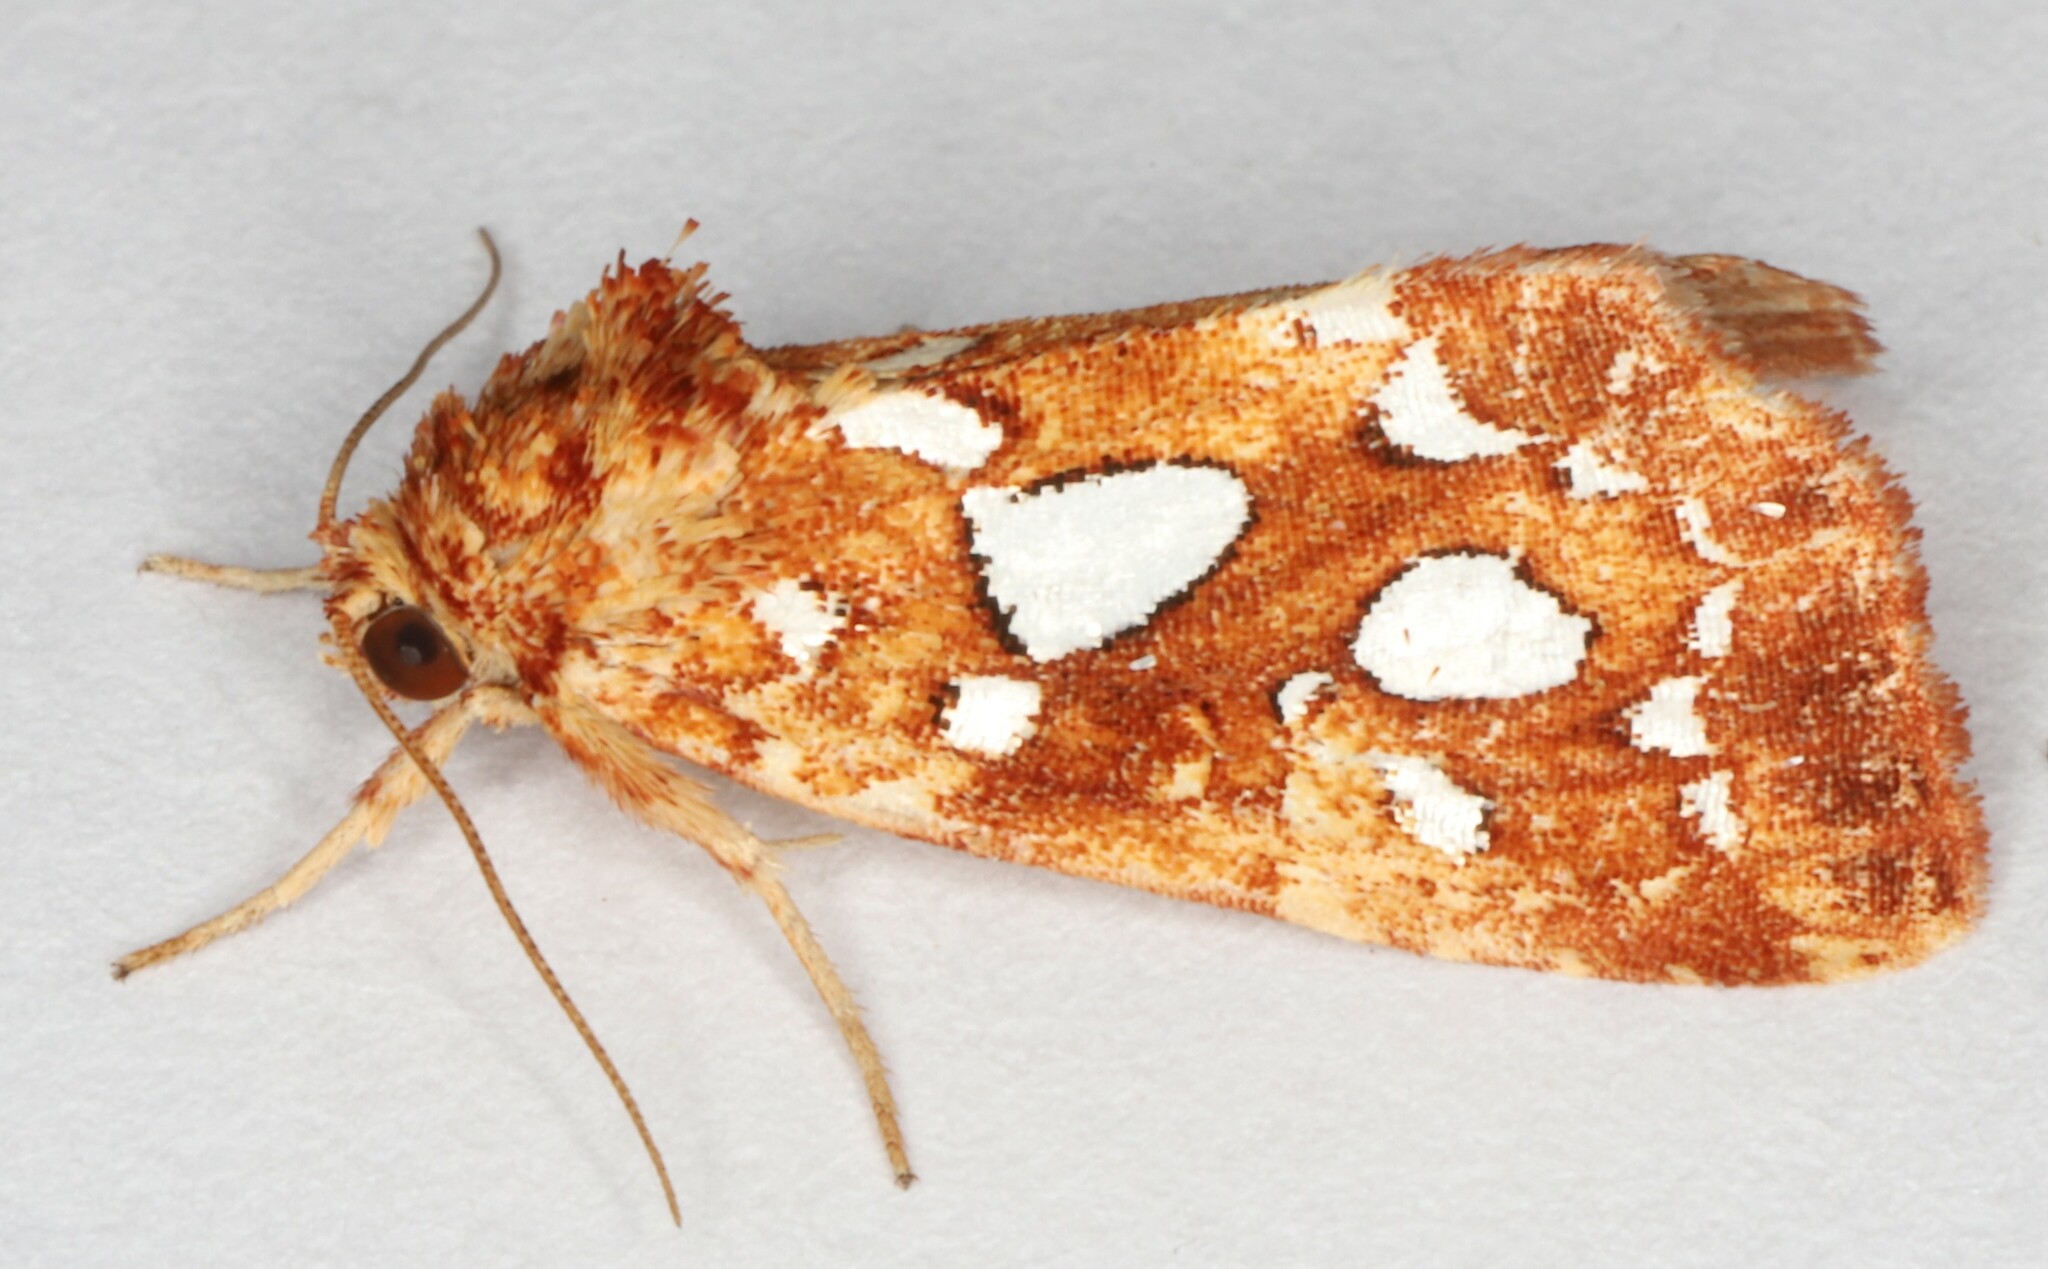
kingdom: Animalia
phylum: Arthropoda
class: Insecta
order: Lepidoptera
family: Noctuidae
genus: Callopistria
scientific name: Callopistria cordata
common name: Silver-spotted fern moth
